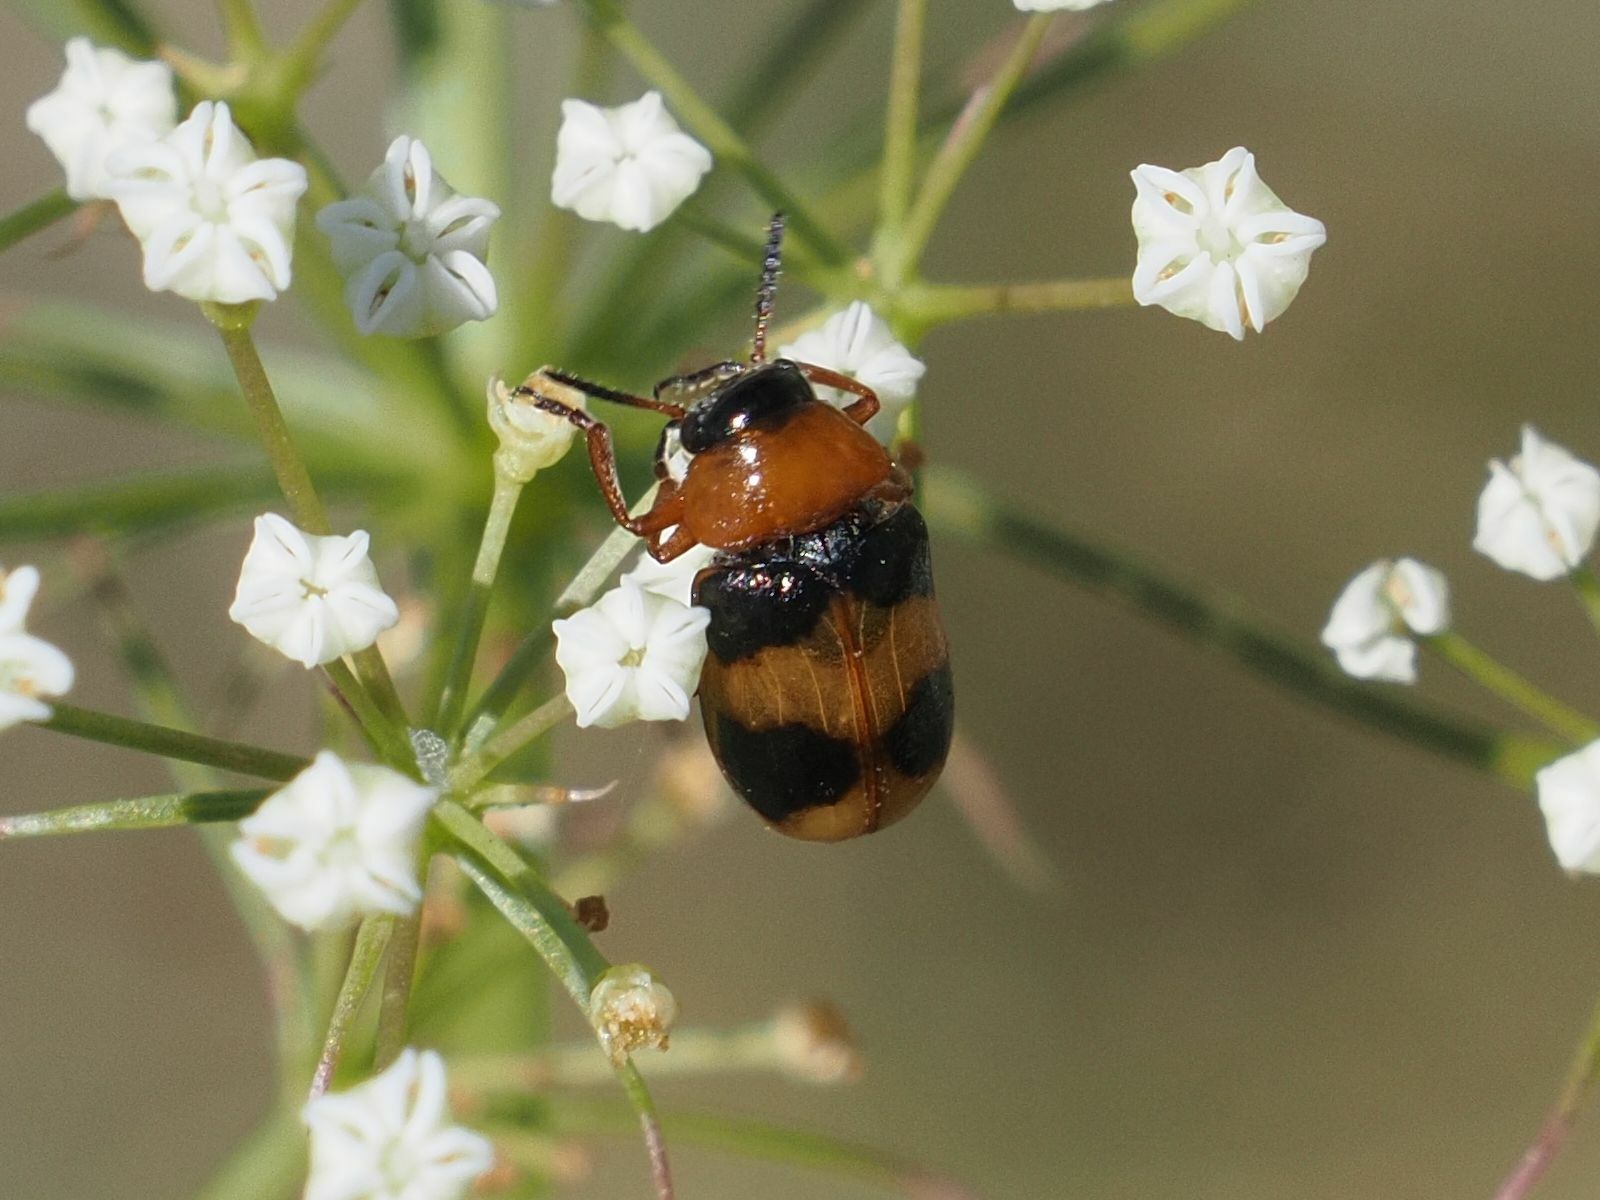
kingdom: Animalia
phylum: Arthropoda
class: Insecta
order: Coleoptera
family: Chrysomelidae
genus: Coptocephala
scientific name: Coptocephala unifasciata
